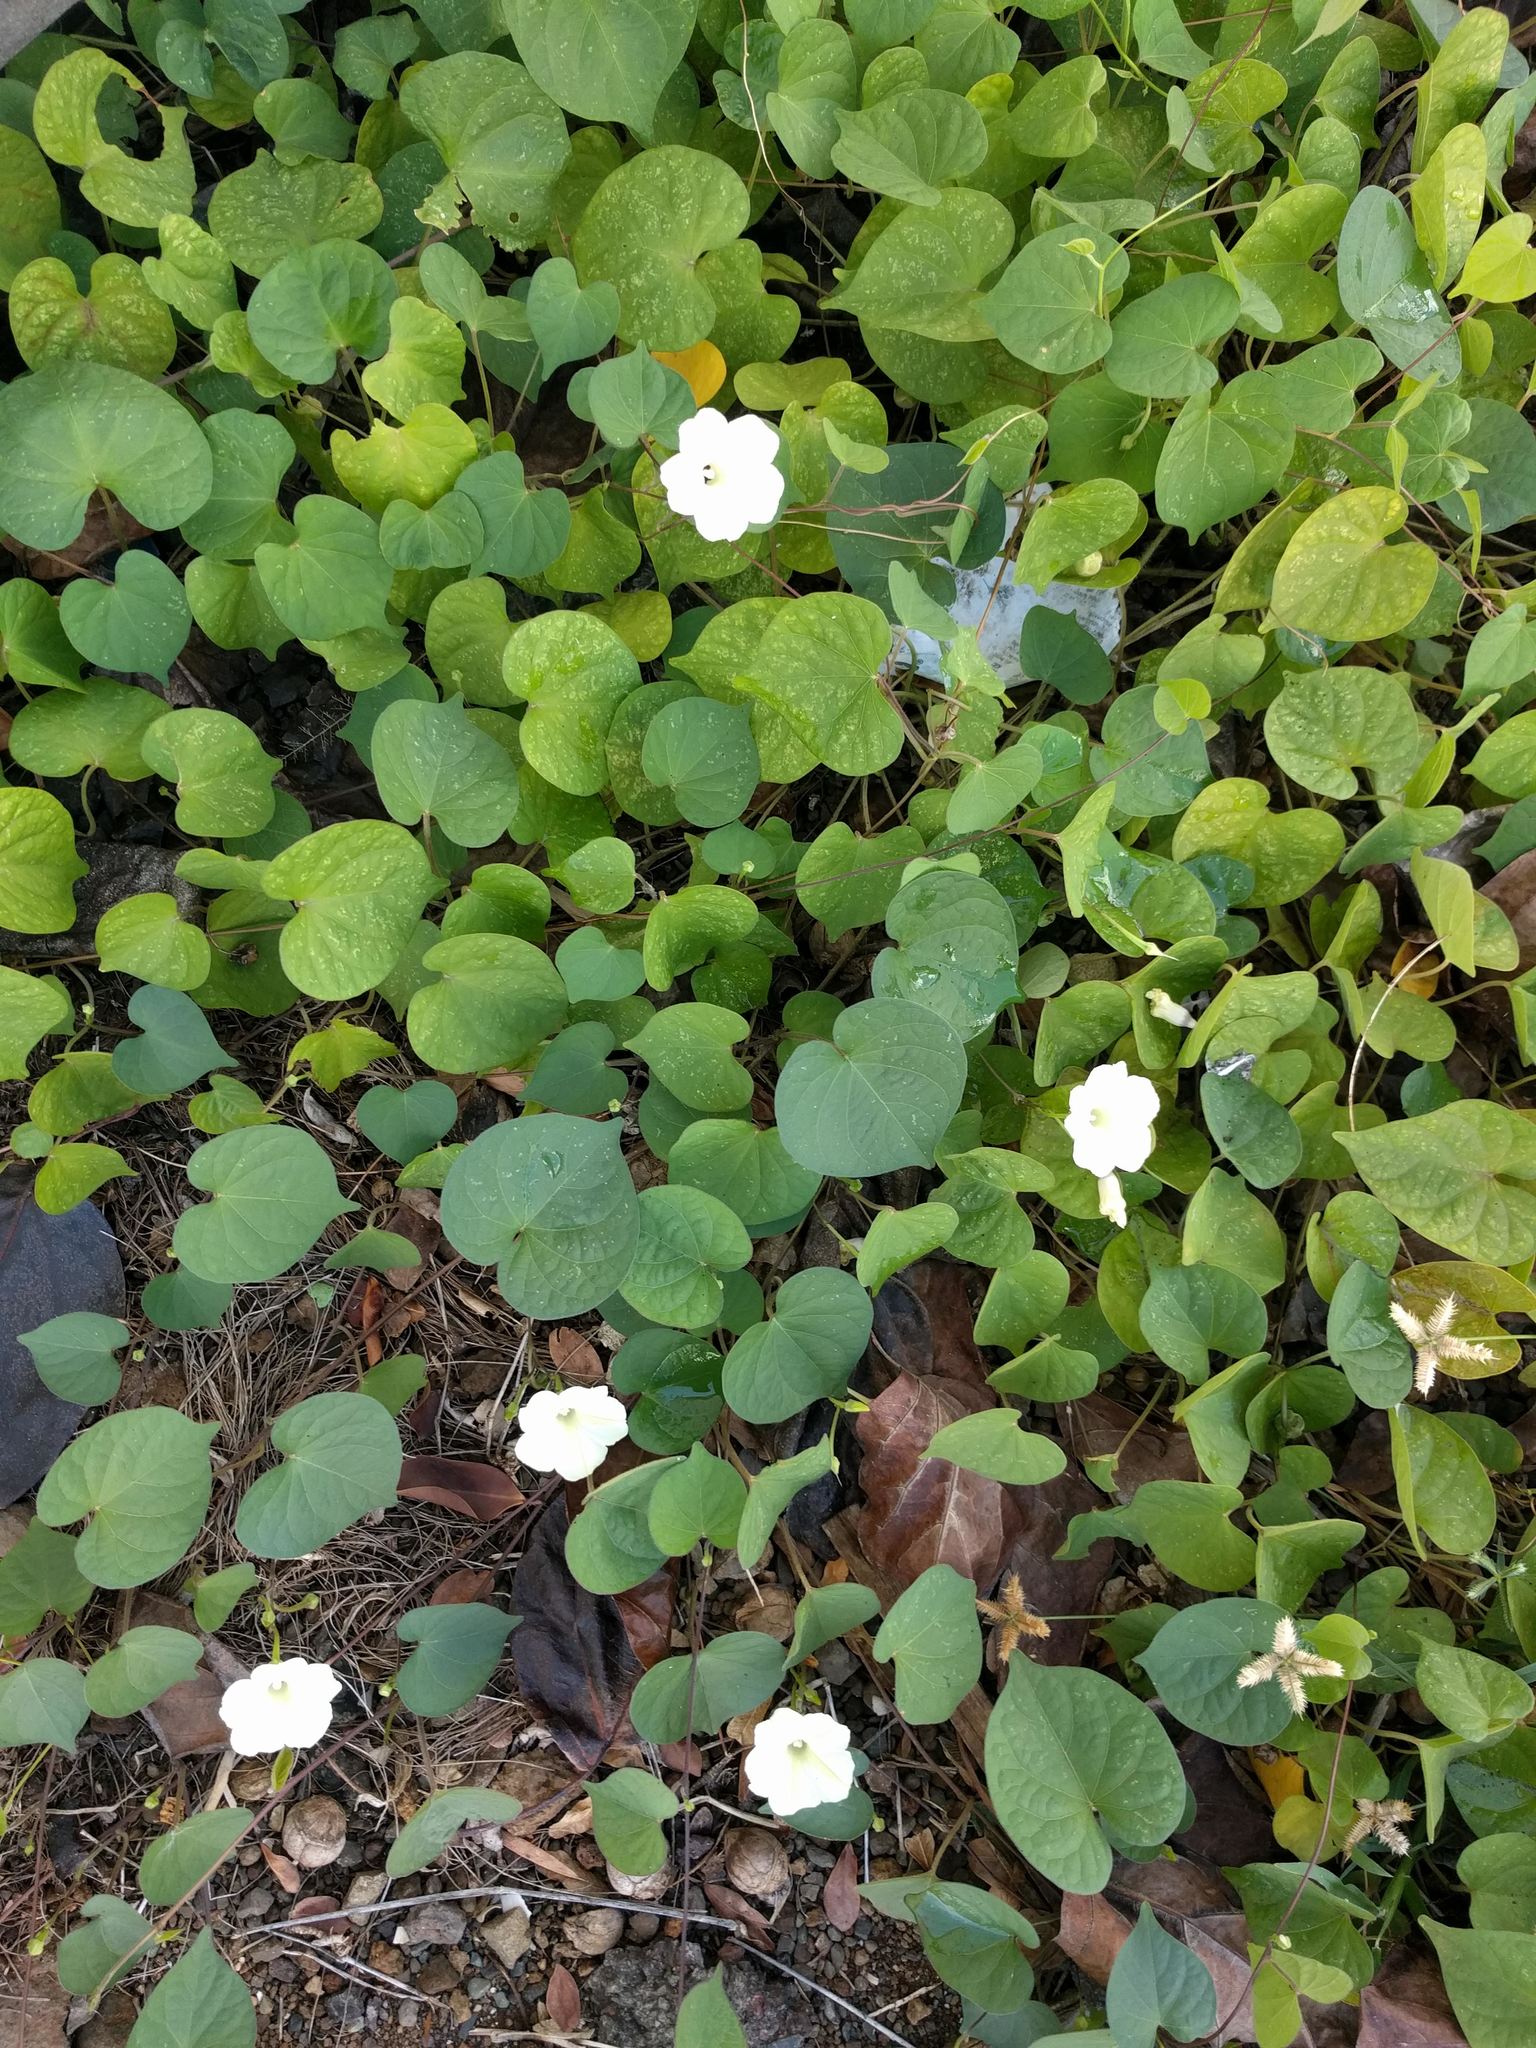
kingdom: Plantae
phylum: Tracheophyta
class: Magnoliopsida
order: Solanales
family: Convolvulaceae
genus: Ipomoea
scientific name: Ipomoea obscura
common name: Obscure morning-glory
